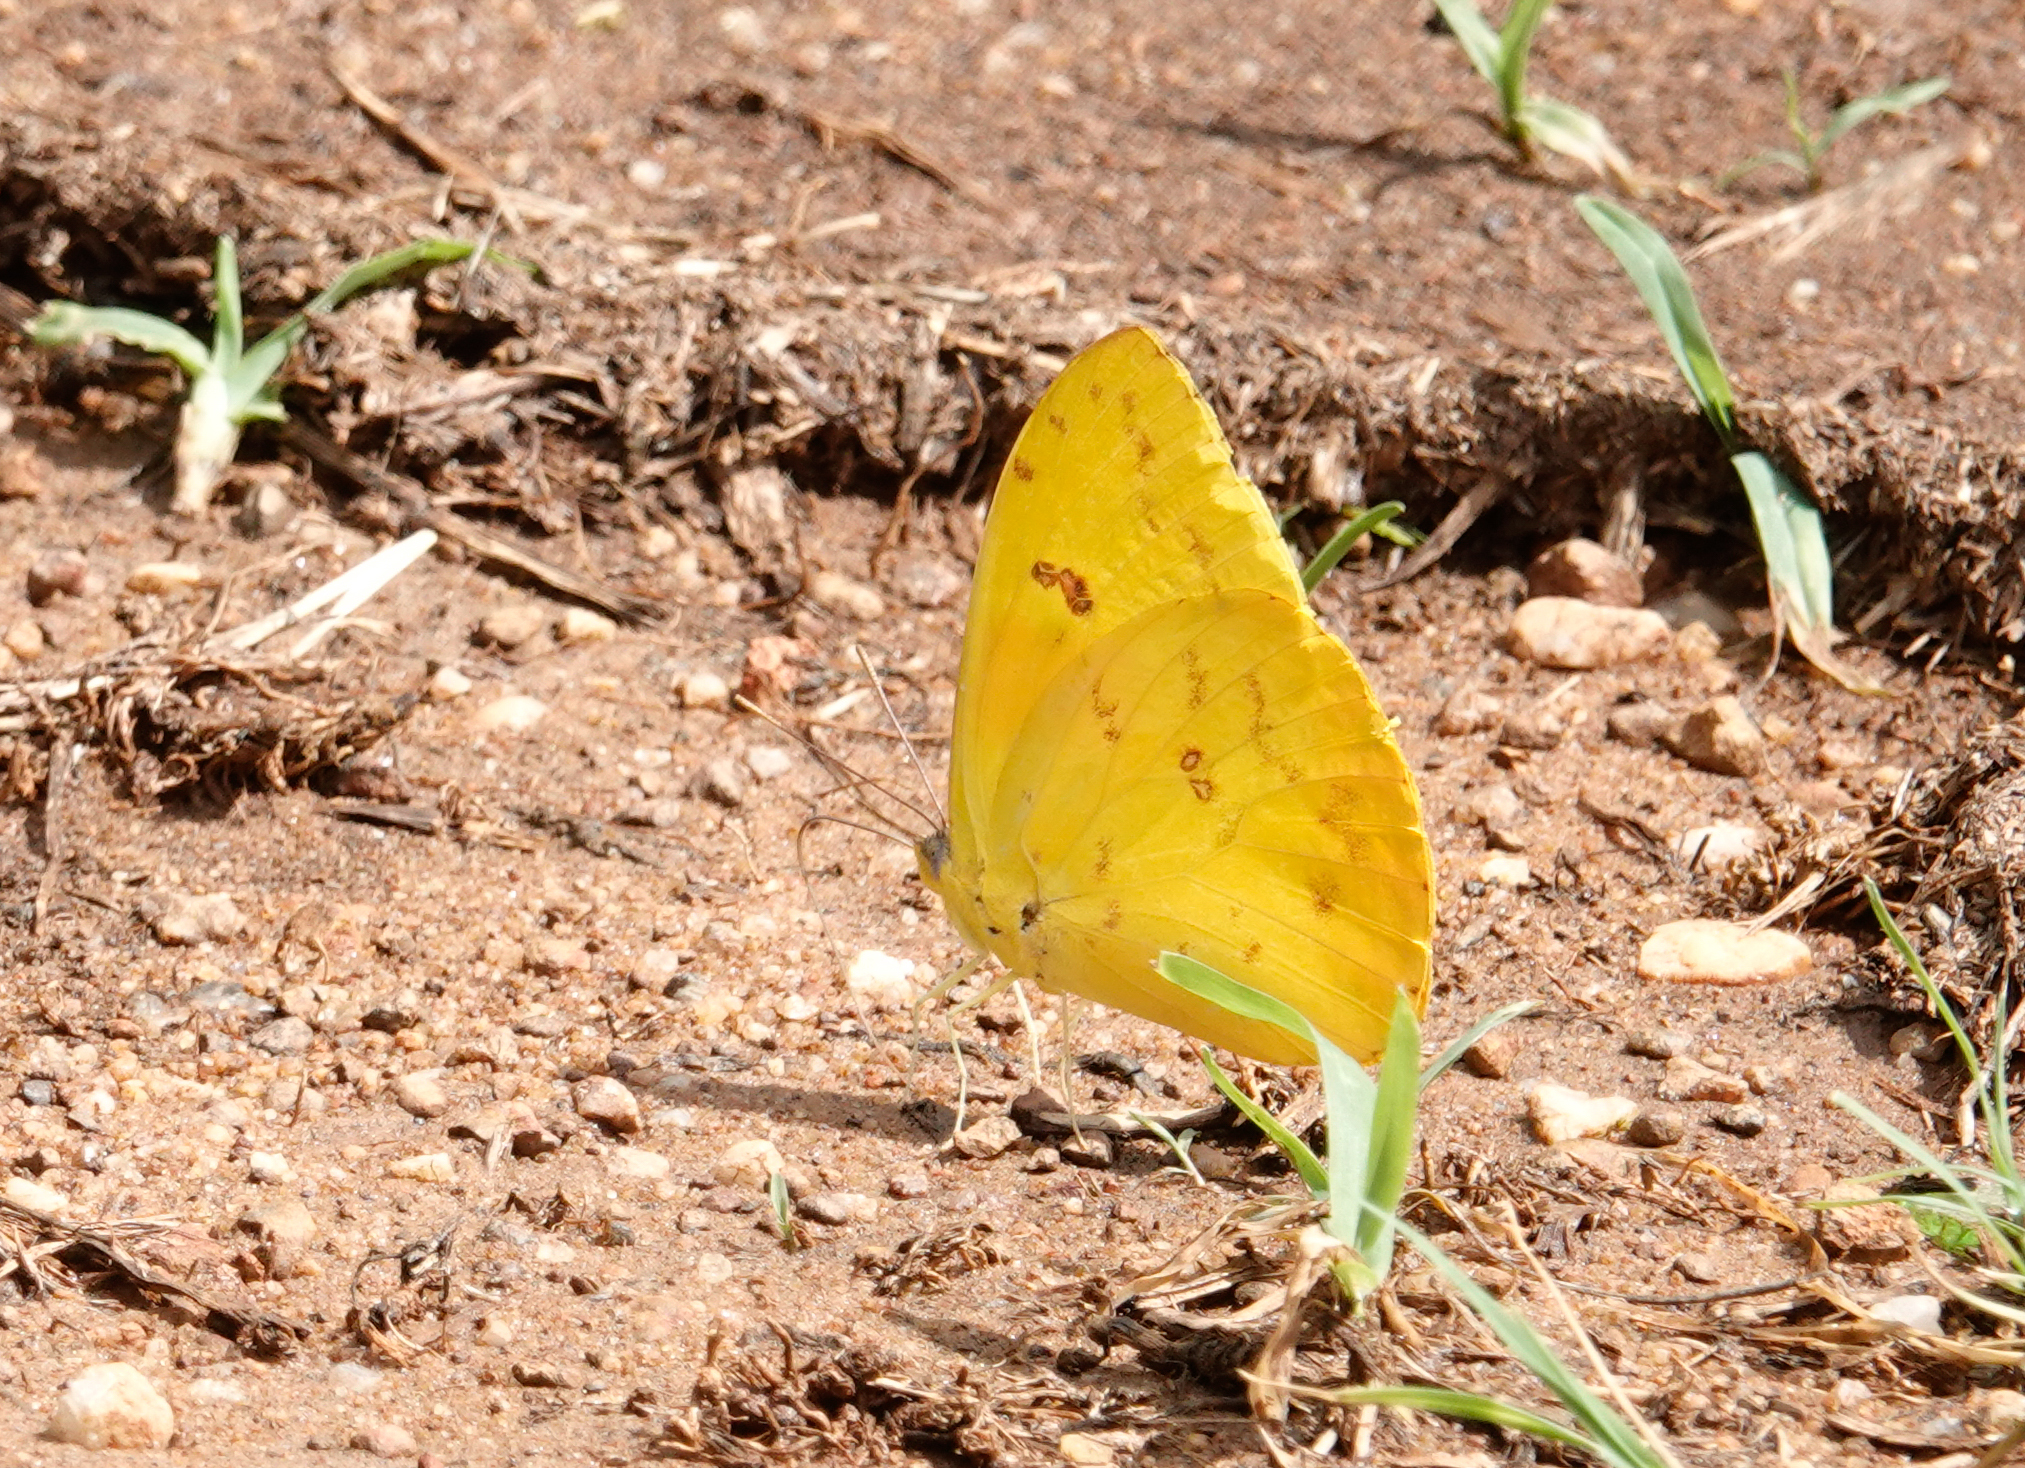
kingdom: Animalia
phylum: Arthropoda
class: Insecta
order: Lepidoptera
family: Pieridae
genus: Phoebis
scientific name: Phoebis philea
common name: Orange-barred giant sulphur
